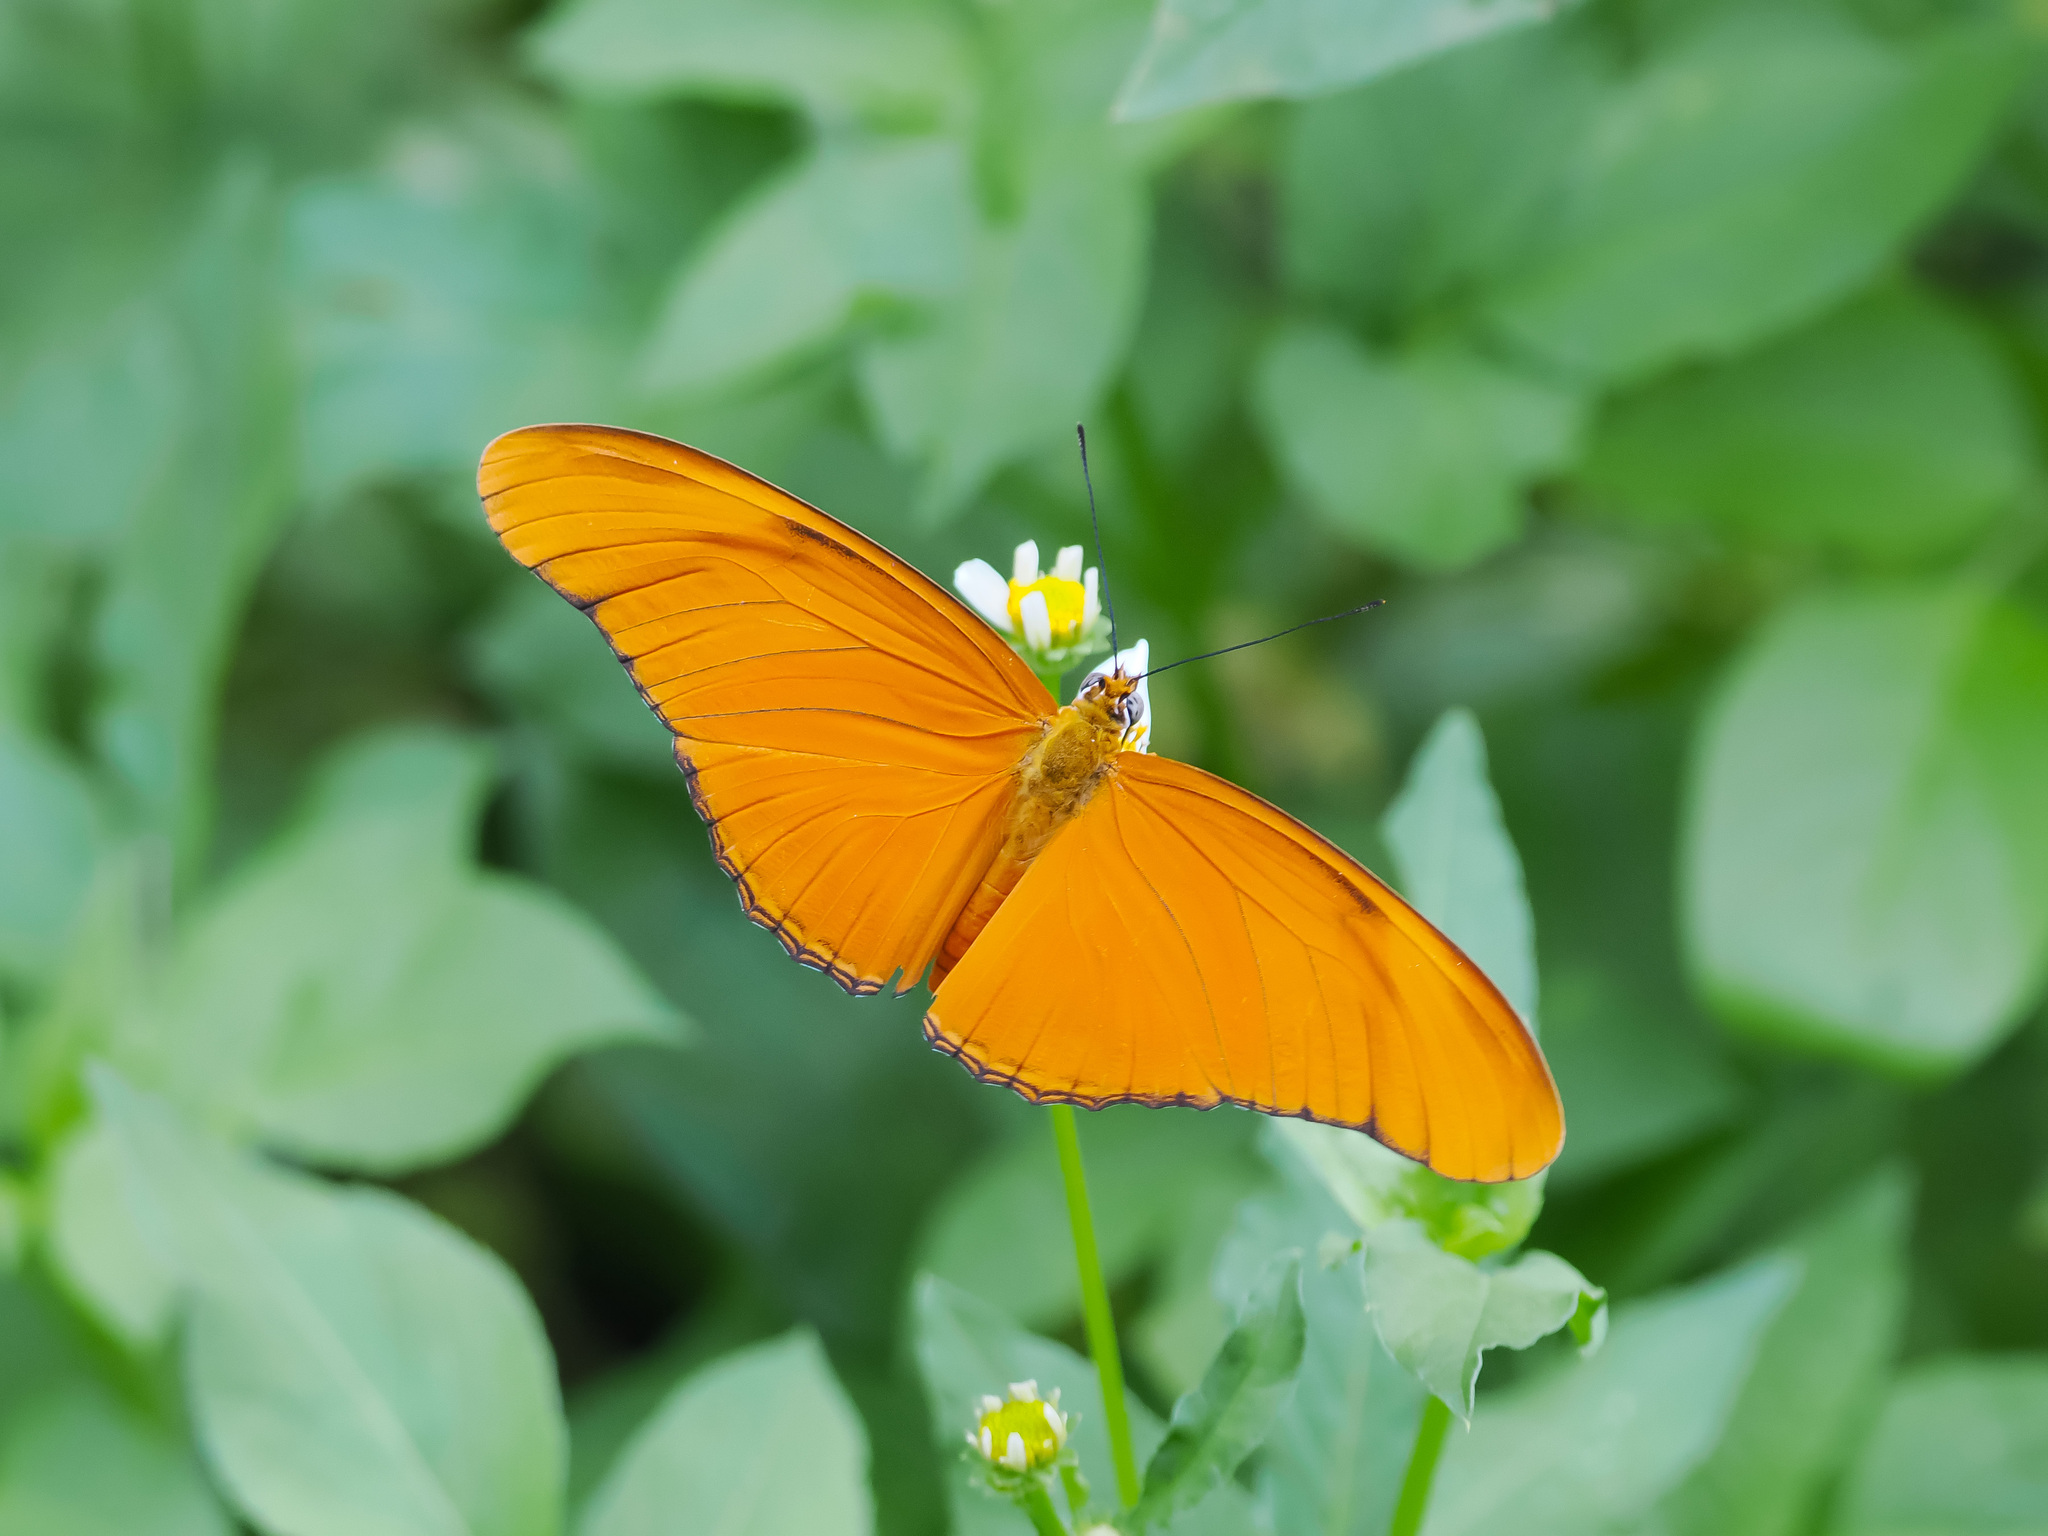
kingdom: Animalia
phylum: Arthropoda
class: Insecta
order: Lepidoptera
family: Nymphalidae
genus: Dryas
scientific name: Dryas iulia
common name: Flambeau
